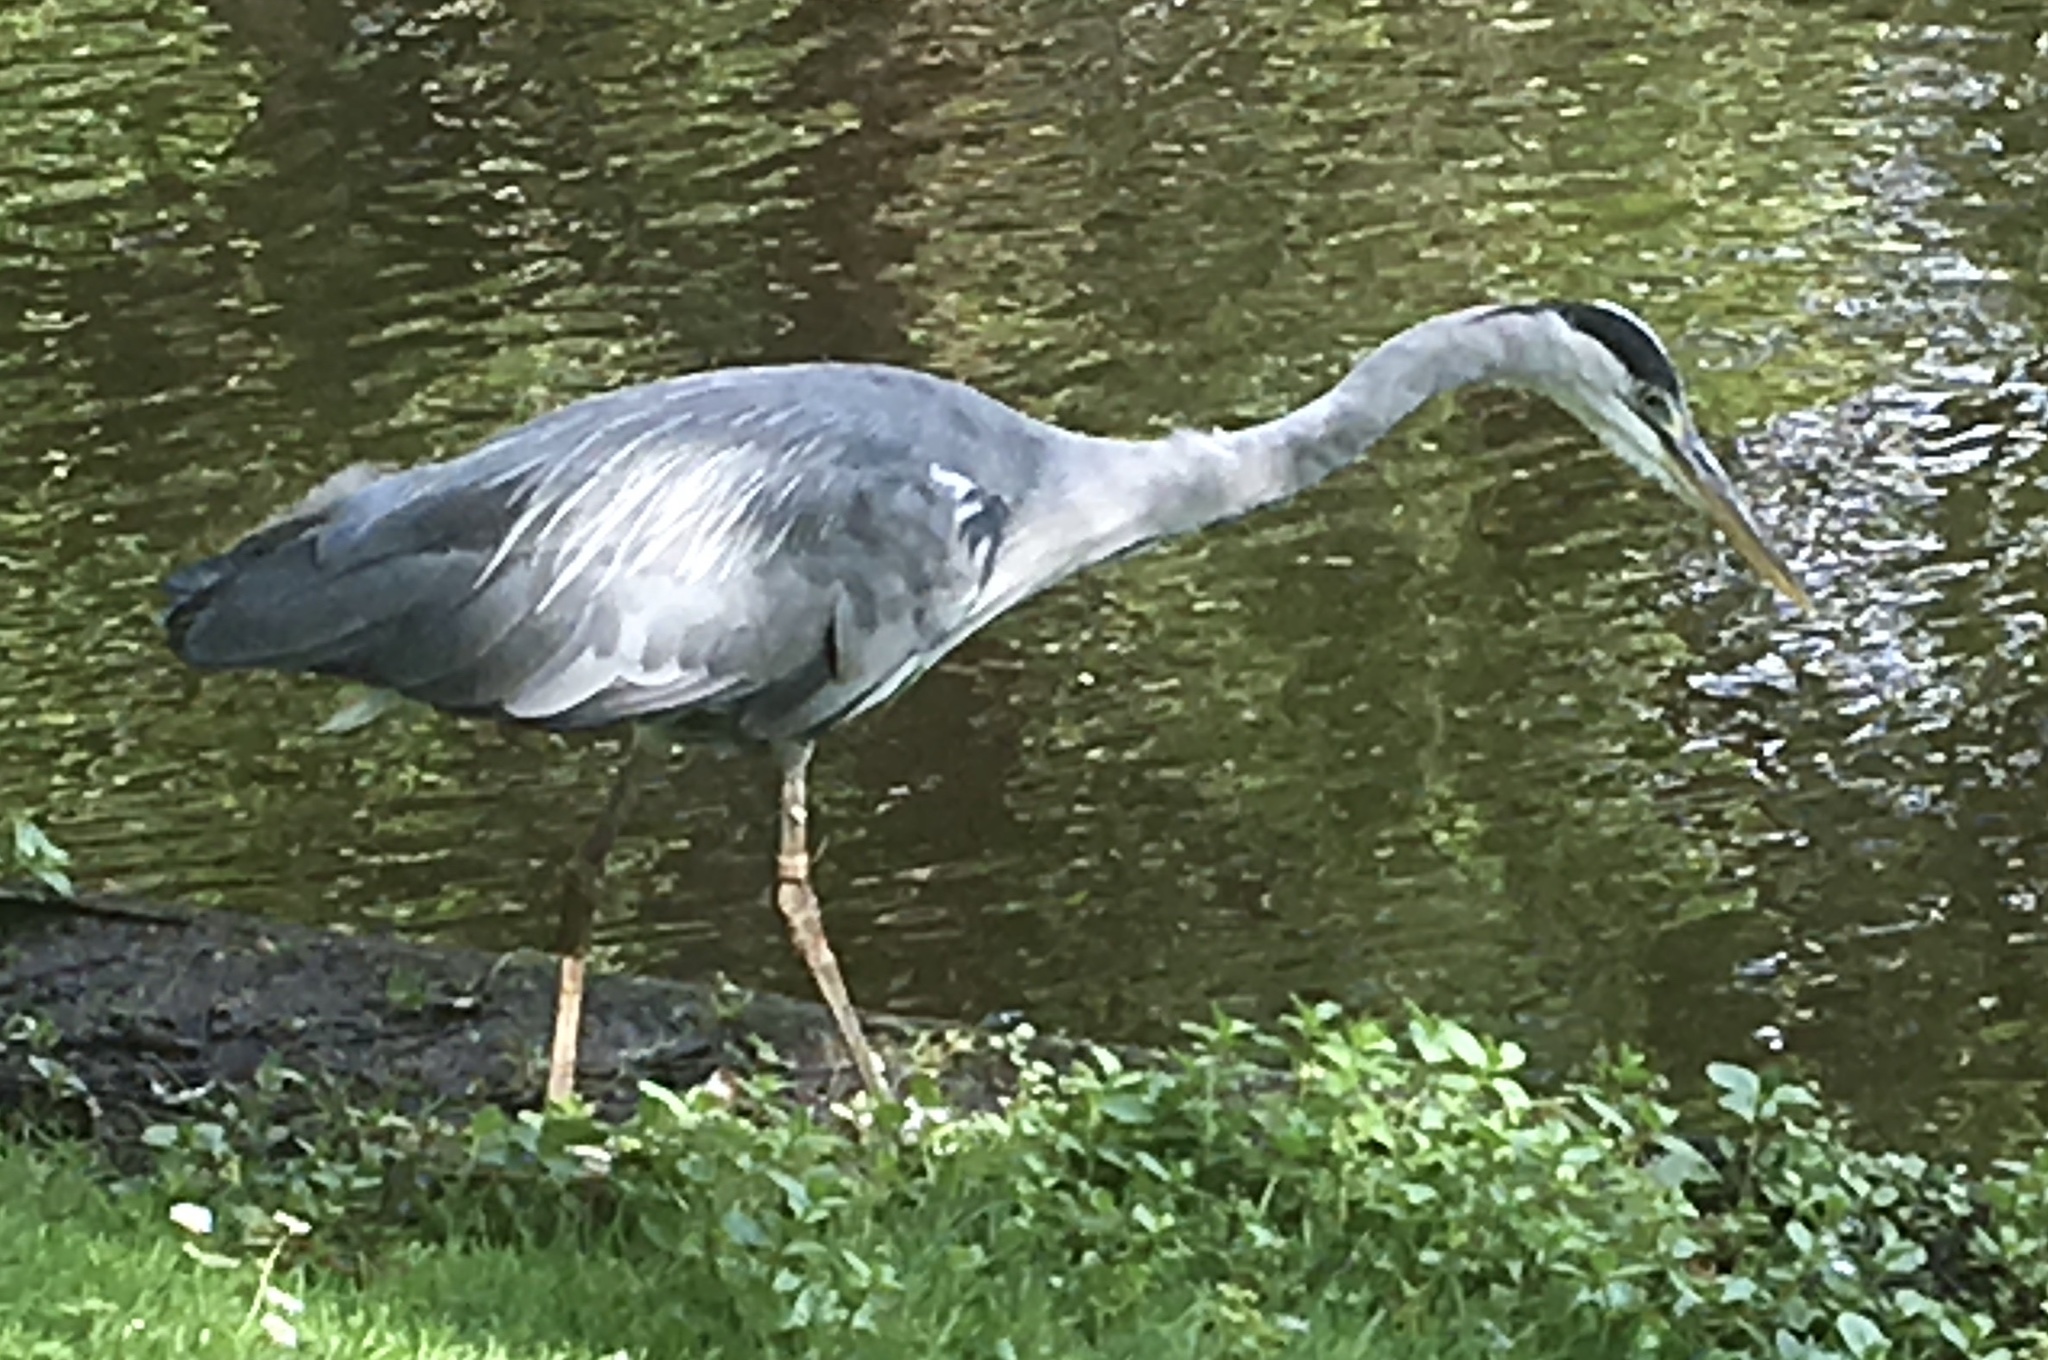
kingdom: Animalia
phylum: Chordata
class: Aves
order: Pelecaniformes
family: Ardeidae
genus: Ardea
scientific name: Ardea cinerea
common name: Grey heron
